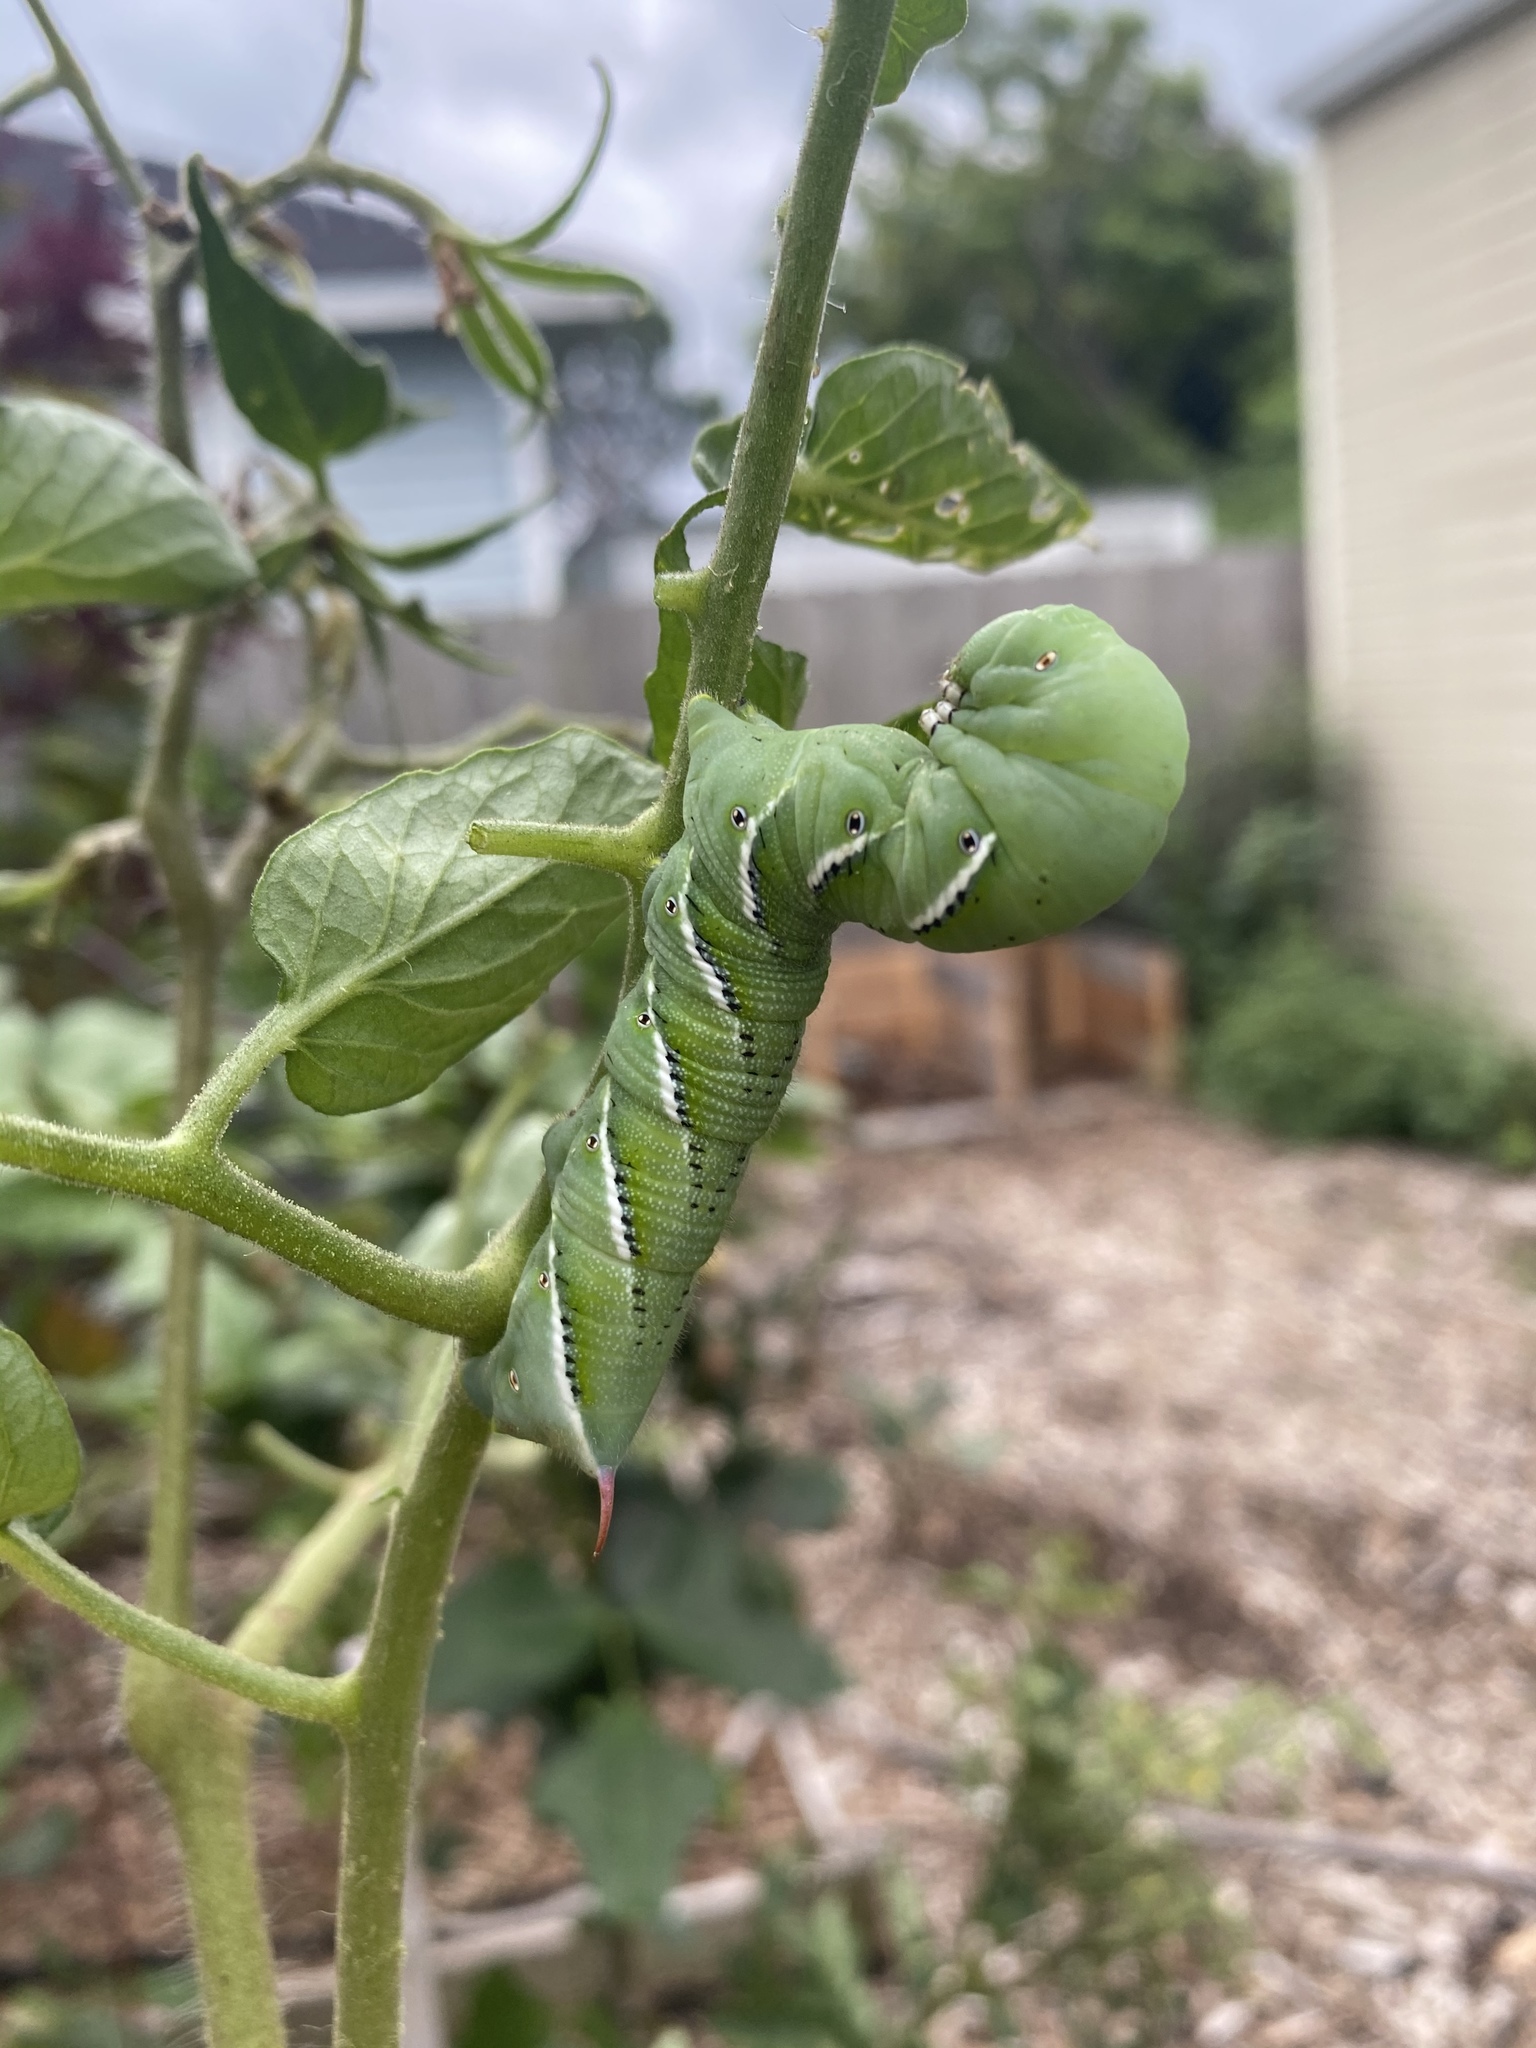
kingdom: Animalia
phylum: Arthropoda
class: Insecta
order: Lepidoptera
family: Sphingidae
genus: Manduca
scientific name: Manduca sexta
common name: Carolina sphinx
